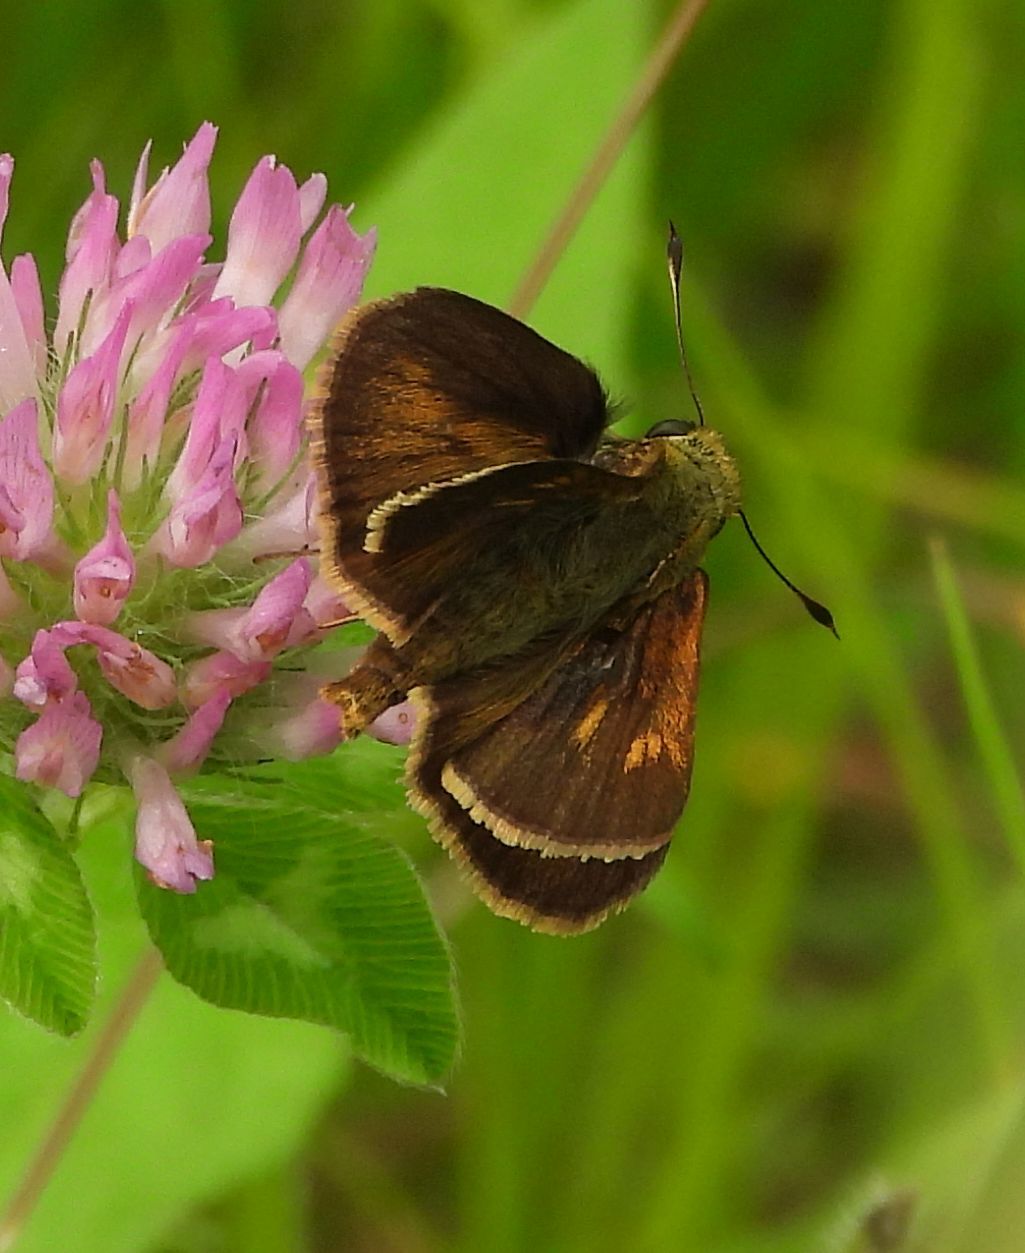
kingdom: Animalia
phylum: Arthropoda
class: Insecta
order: Lepidoptera
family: Hesperiidae
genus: Polites
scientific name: Polites egeremet
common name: Northern broken-dash
